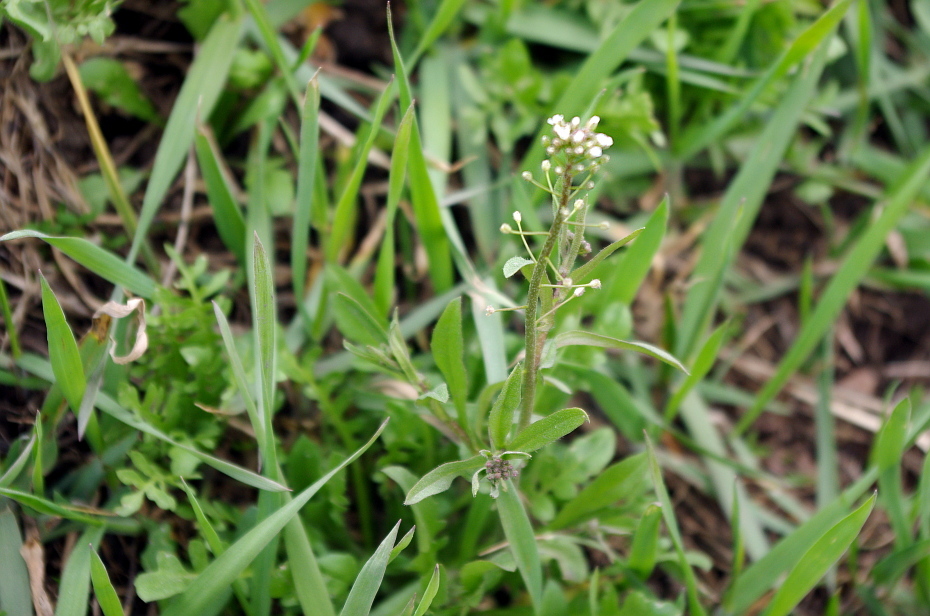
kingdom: Plantae
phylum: Tracheophyta
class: Magnoliopsida
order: Brassicales
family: Brassicaceae
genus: Capsella
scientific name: Capsella bursa-pastoris
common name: Shepherd's purse
